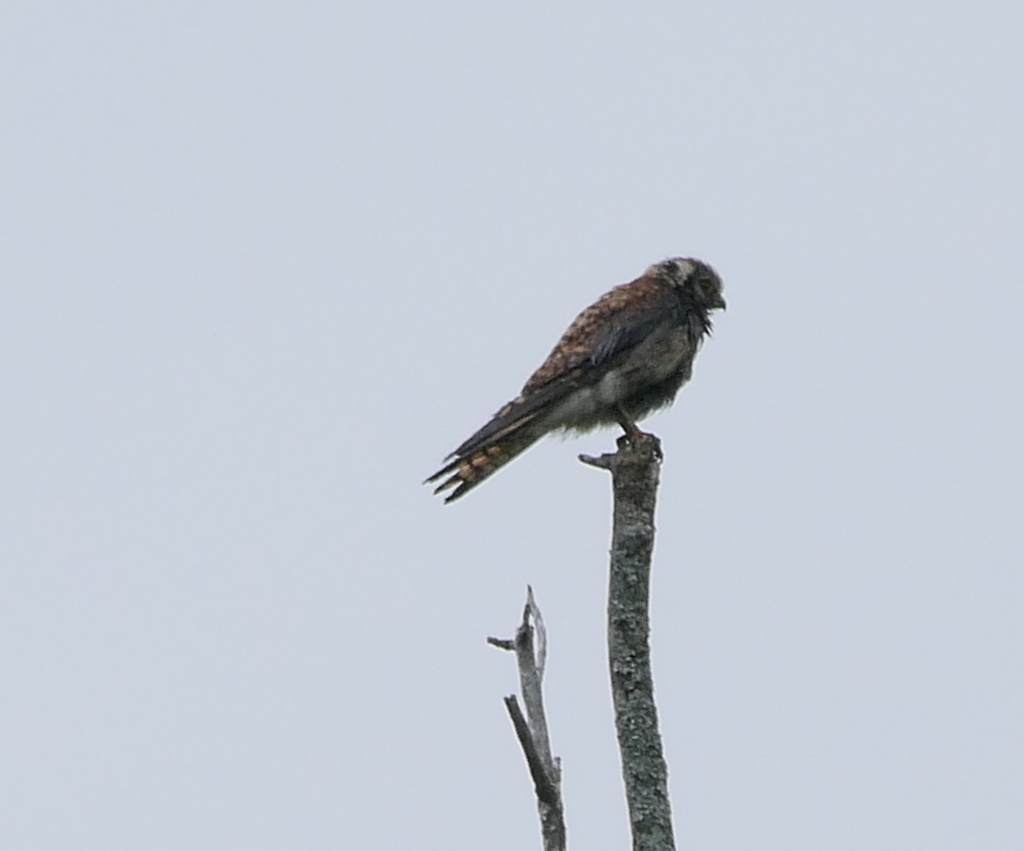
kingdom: Animalia
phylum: Chordata
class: Aves
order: Falconiformes
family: Falconidae
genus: Falco
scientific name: Falco sparverius
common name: American kestrel
